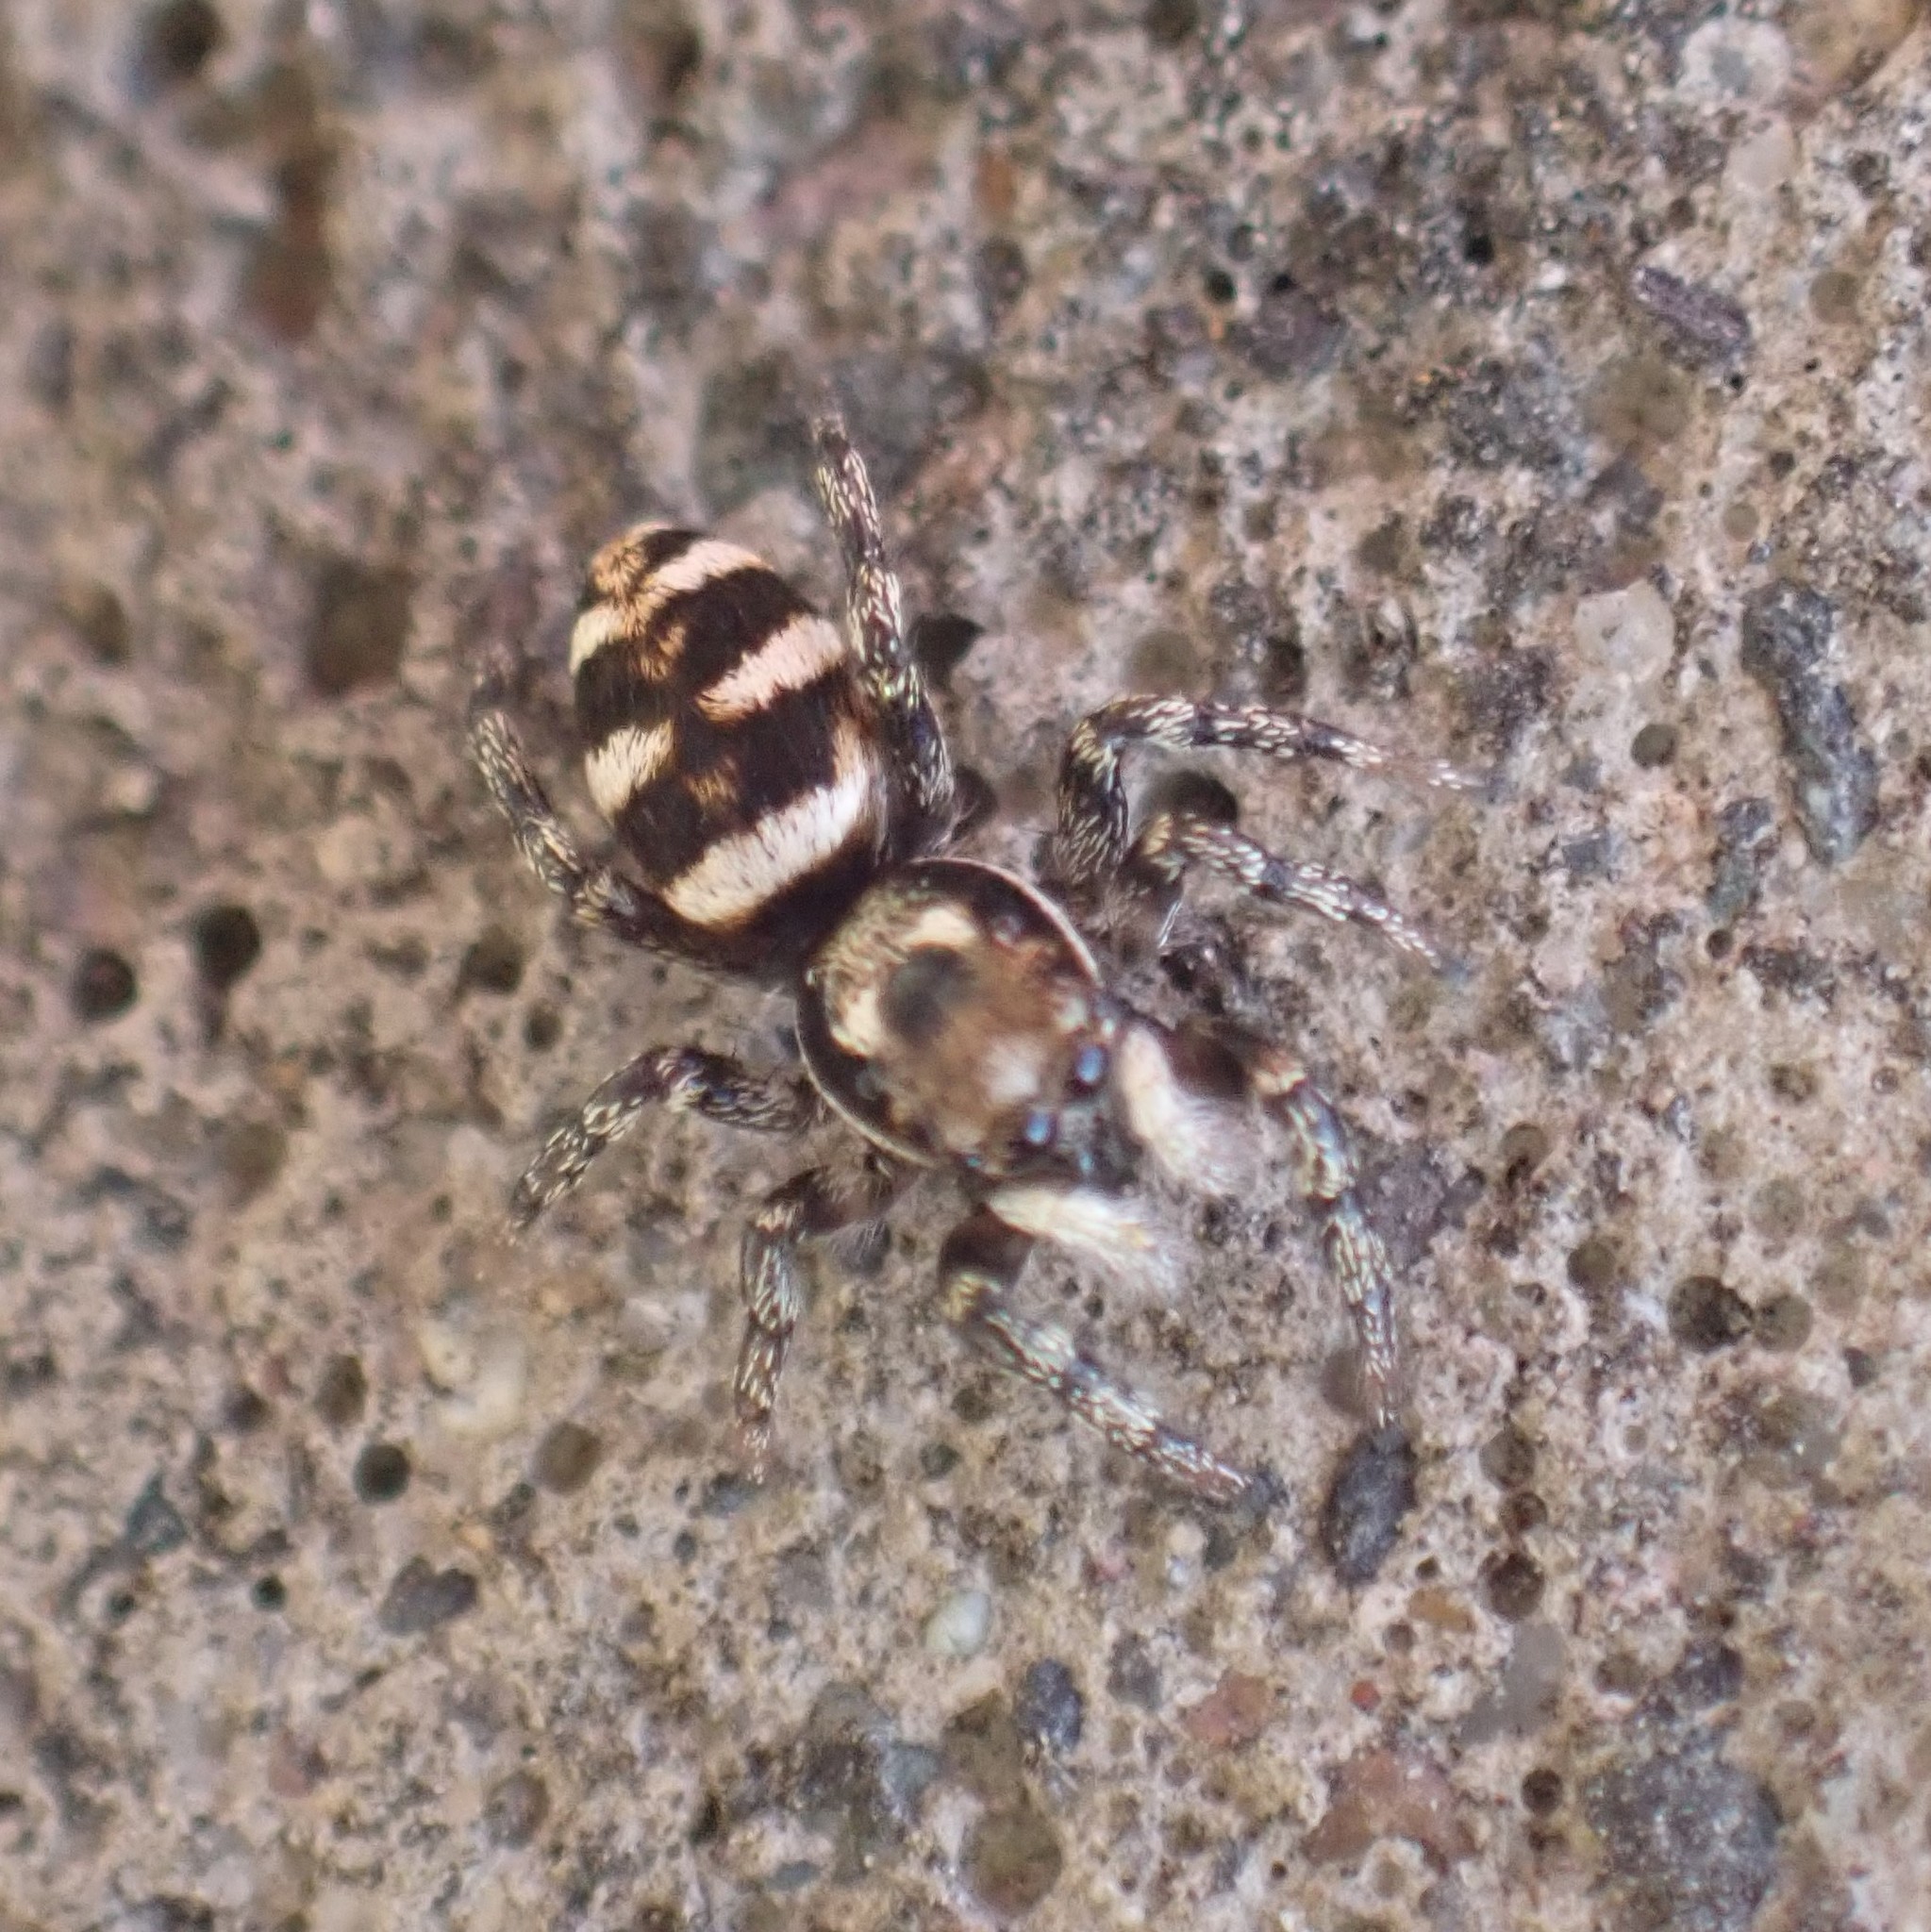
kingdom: Animalia
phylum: Arthropoda
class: Arachnida
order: Araneae
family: Salticidae
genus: Salticus
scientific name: Salticus scenicus
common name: Zebra jumper
